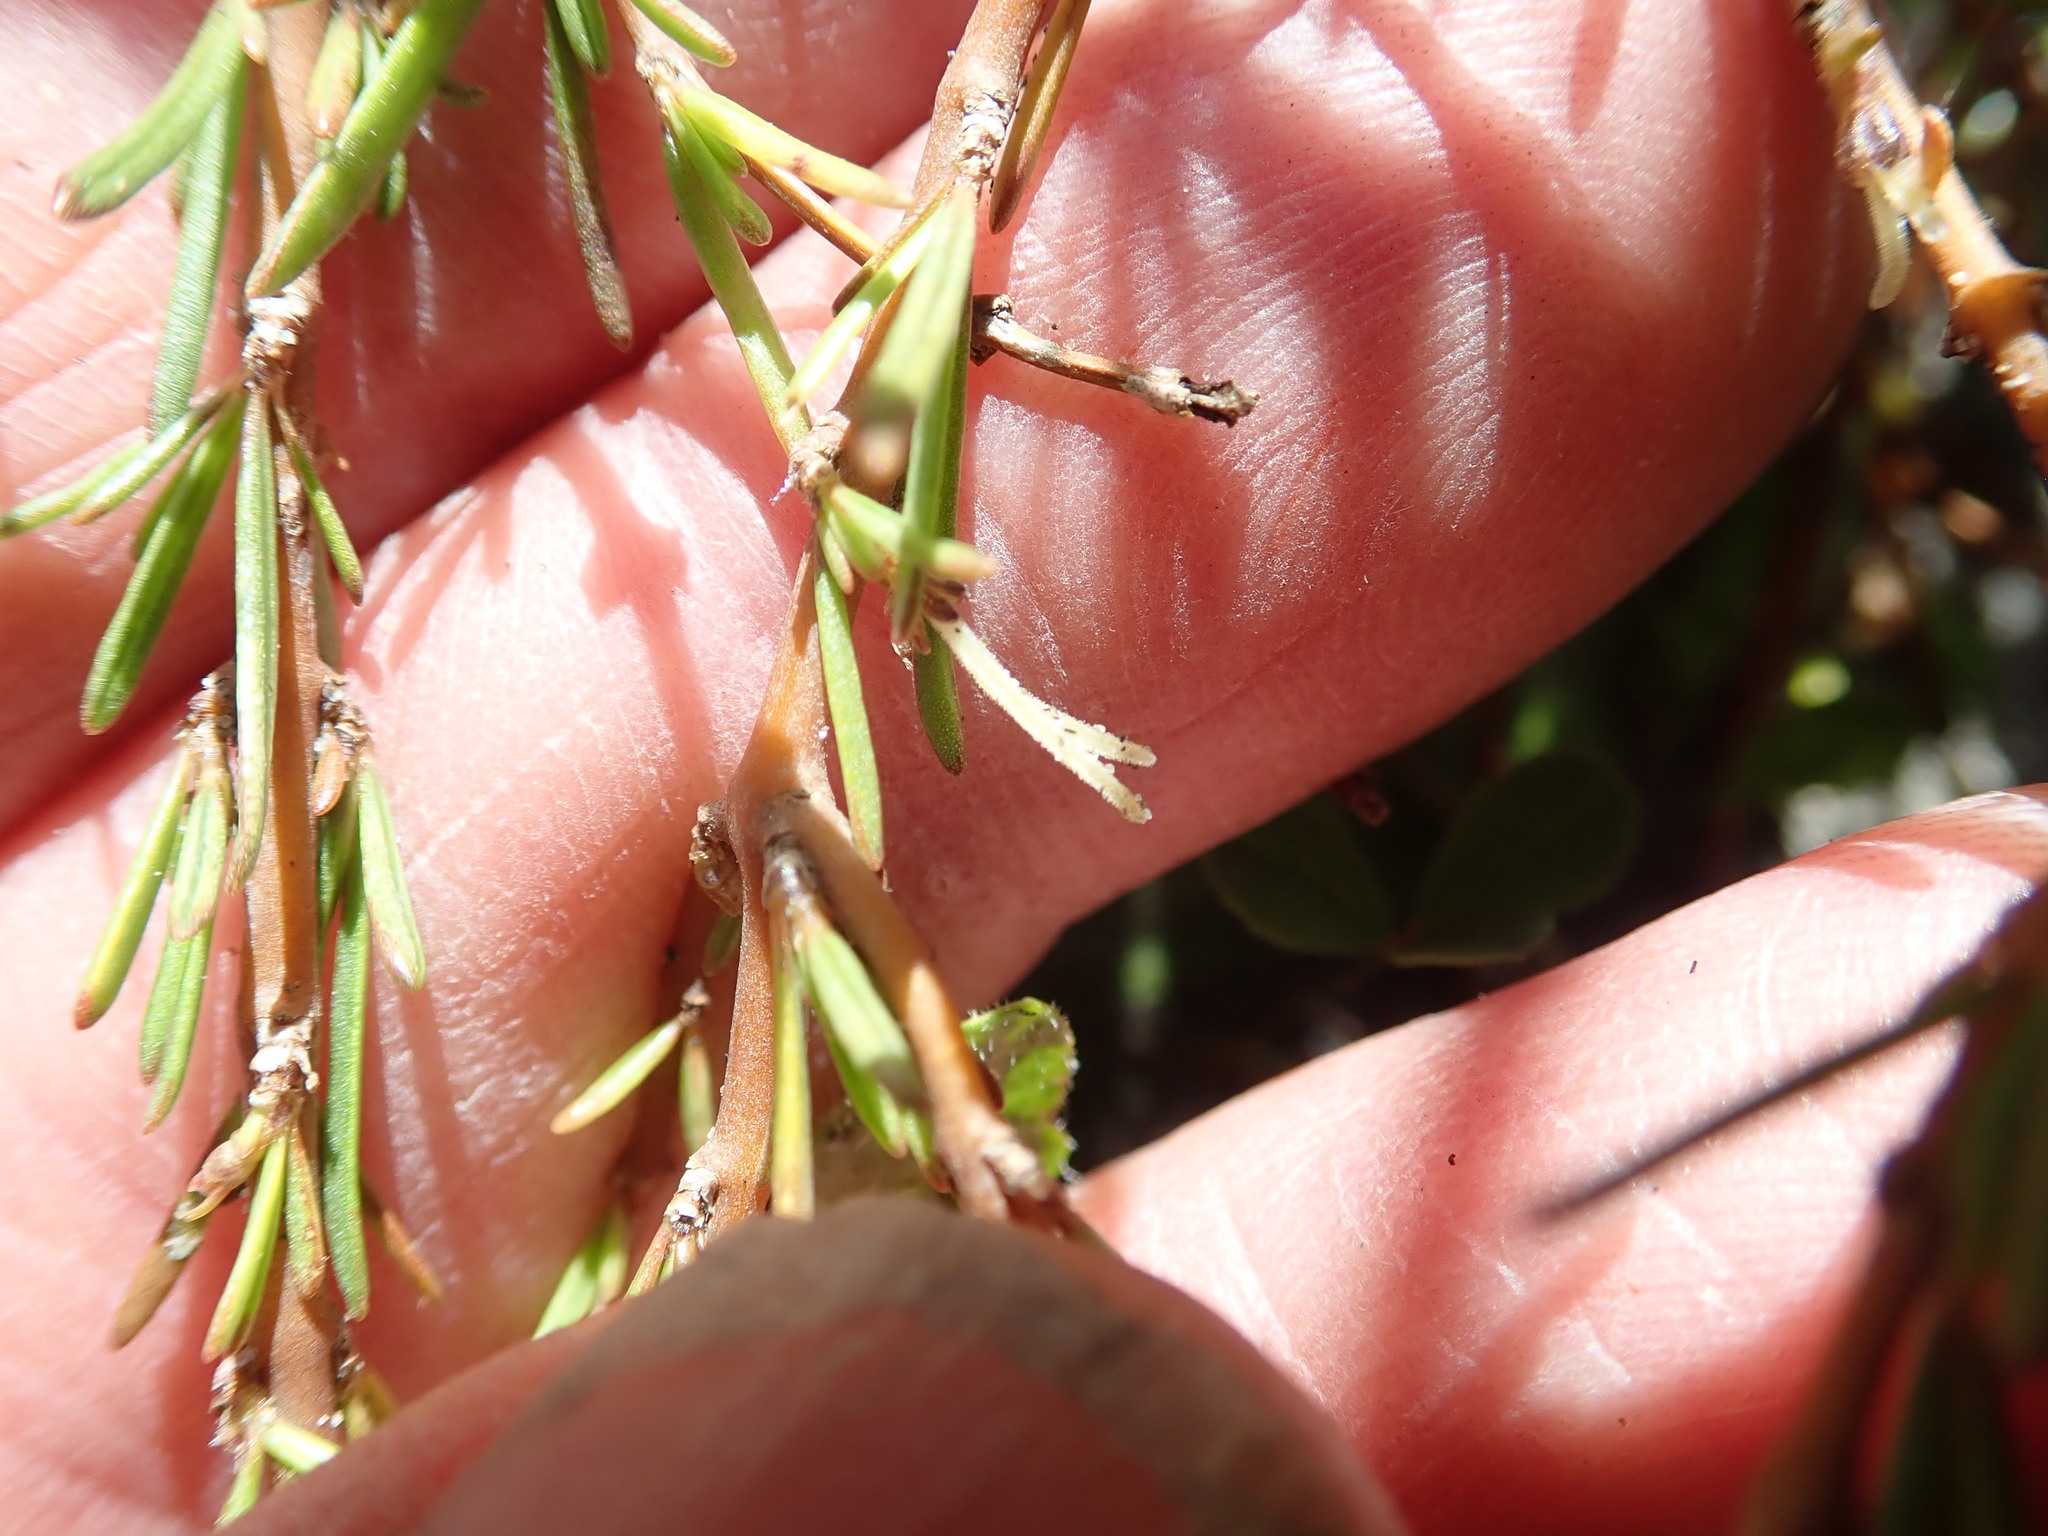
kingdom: Plantae
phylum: Tracheophyta
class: Magnoliopsida
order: Gentianales
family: Rubiaceae
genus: Coprosma
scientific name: Coprosma acerosa
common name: Sand coprosma
